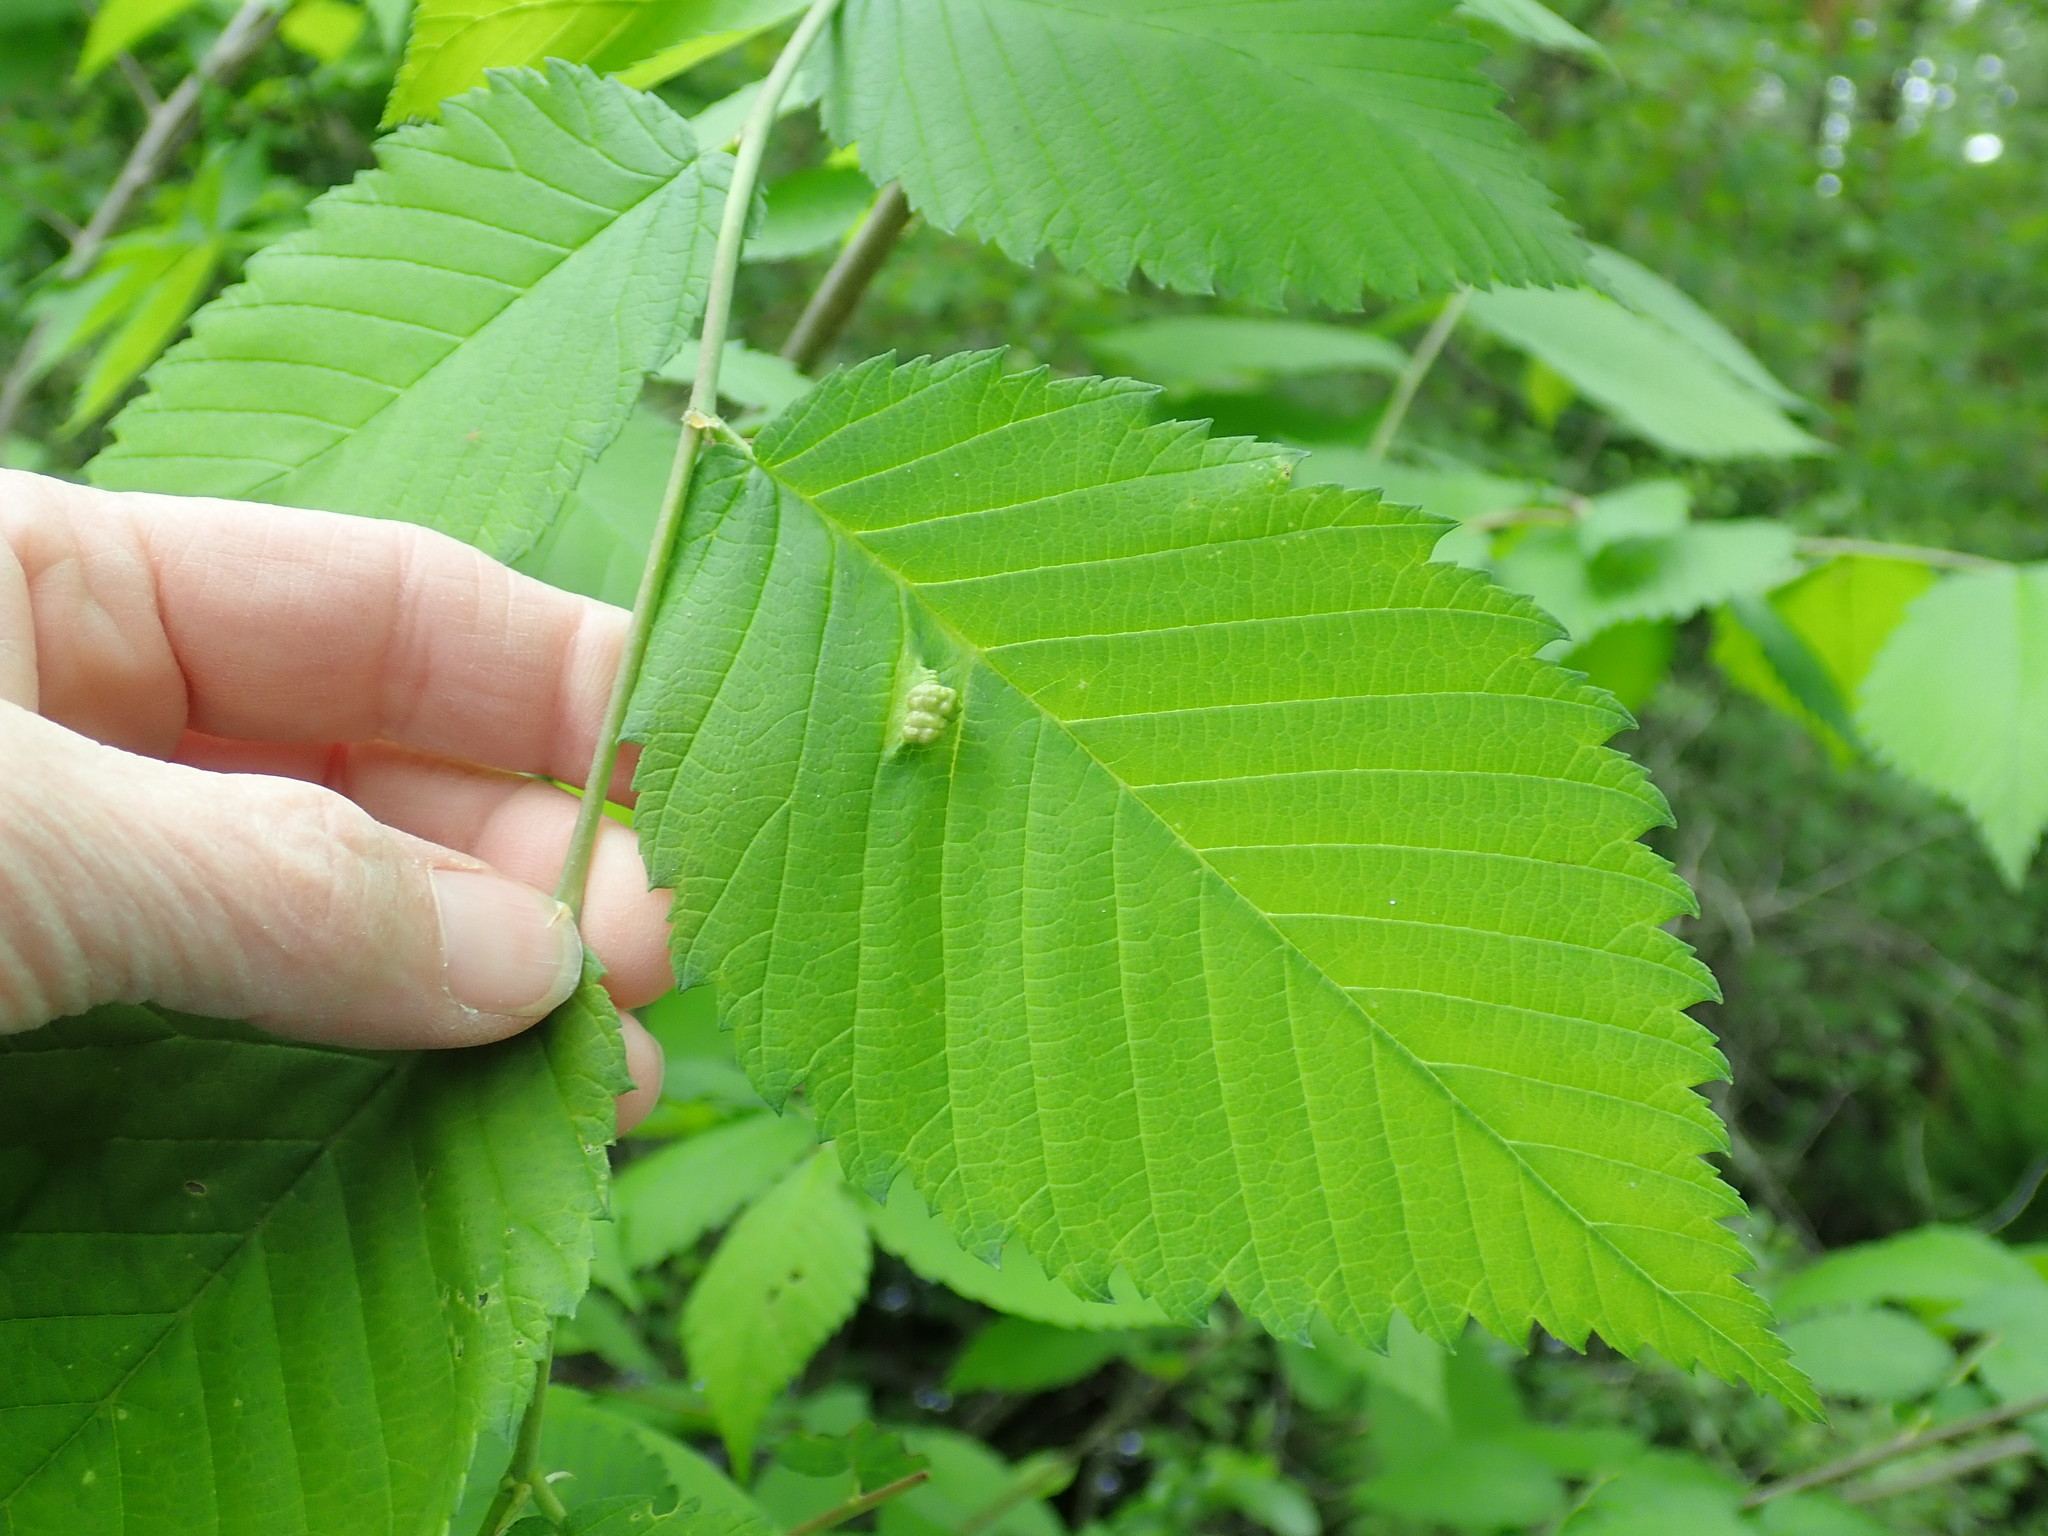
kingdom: Animalia
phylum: Arthropoda
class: Insecta
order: Hemiptera
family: Aphididae
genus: Colopha
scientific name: Colopha ulmicola
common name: Elm cockscombgall aphid
